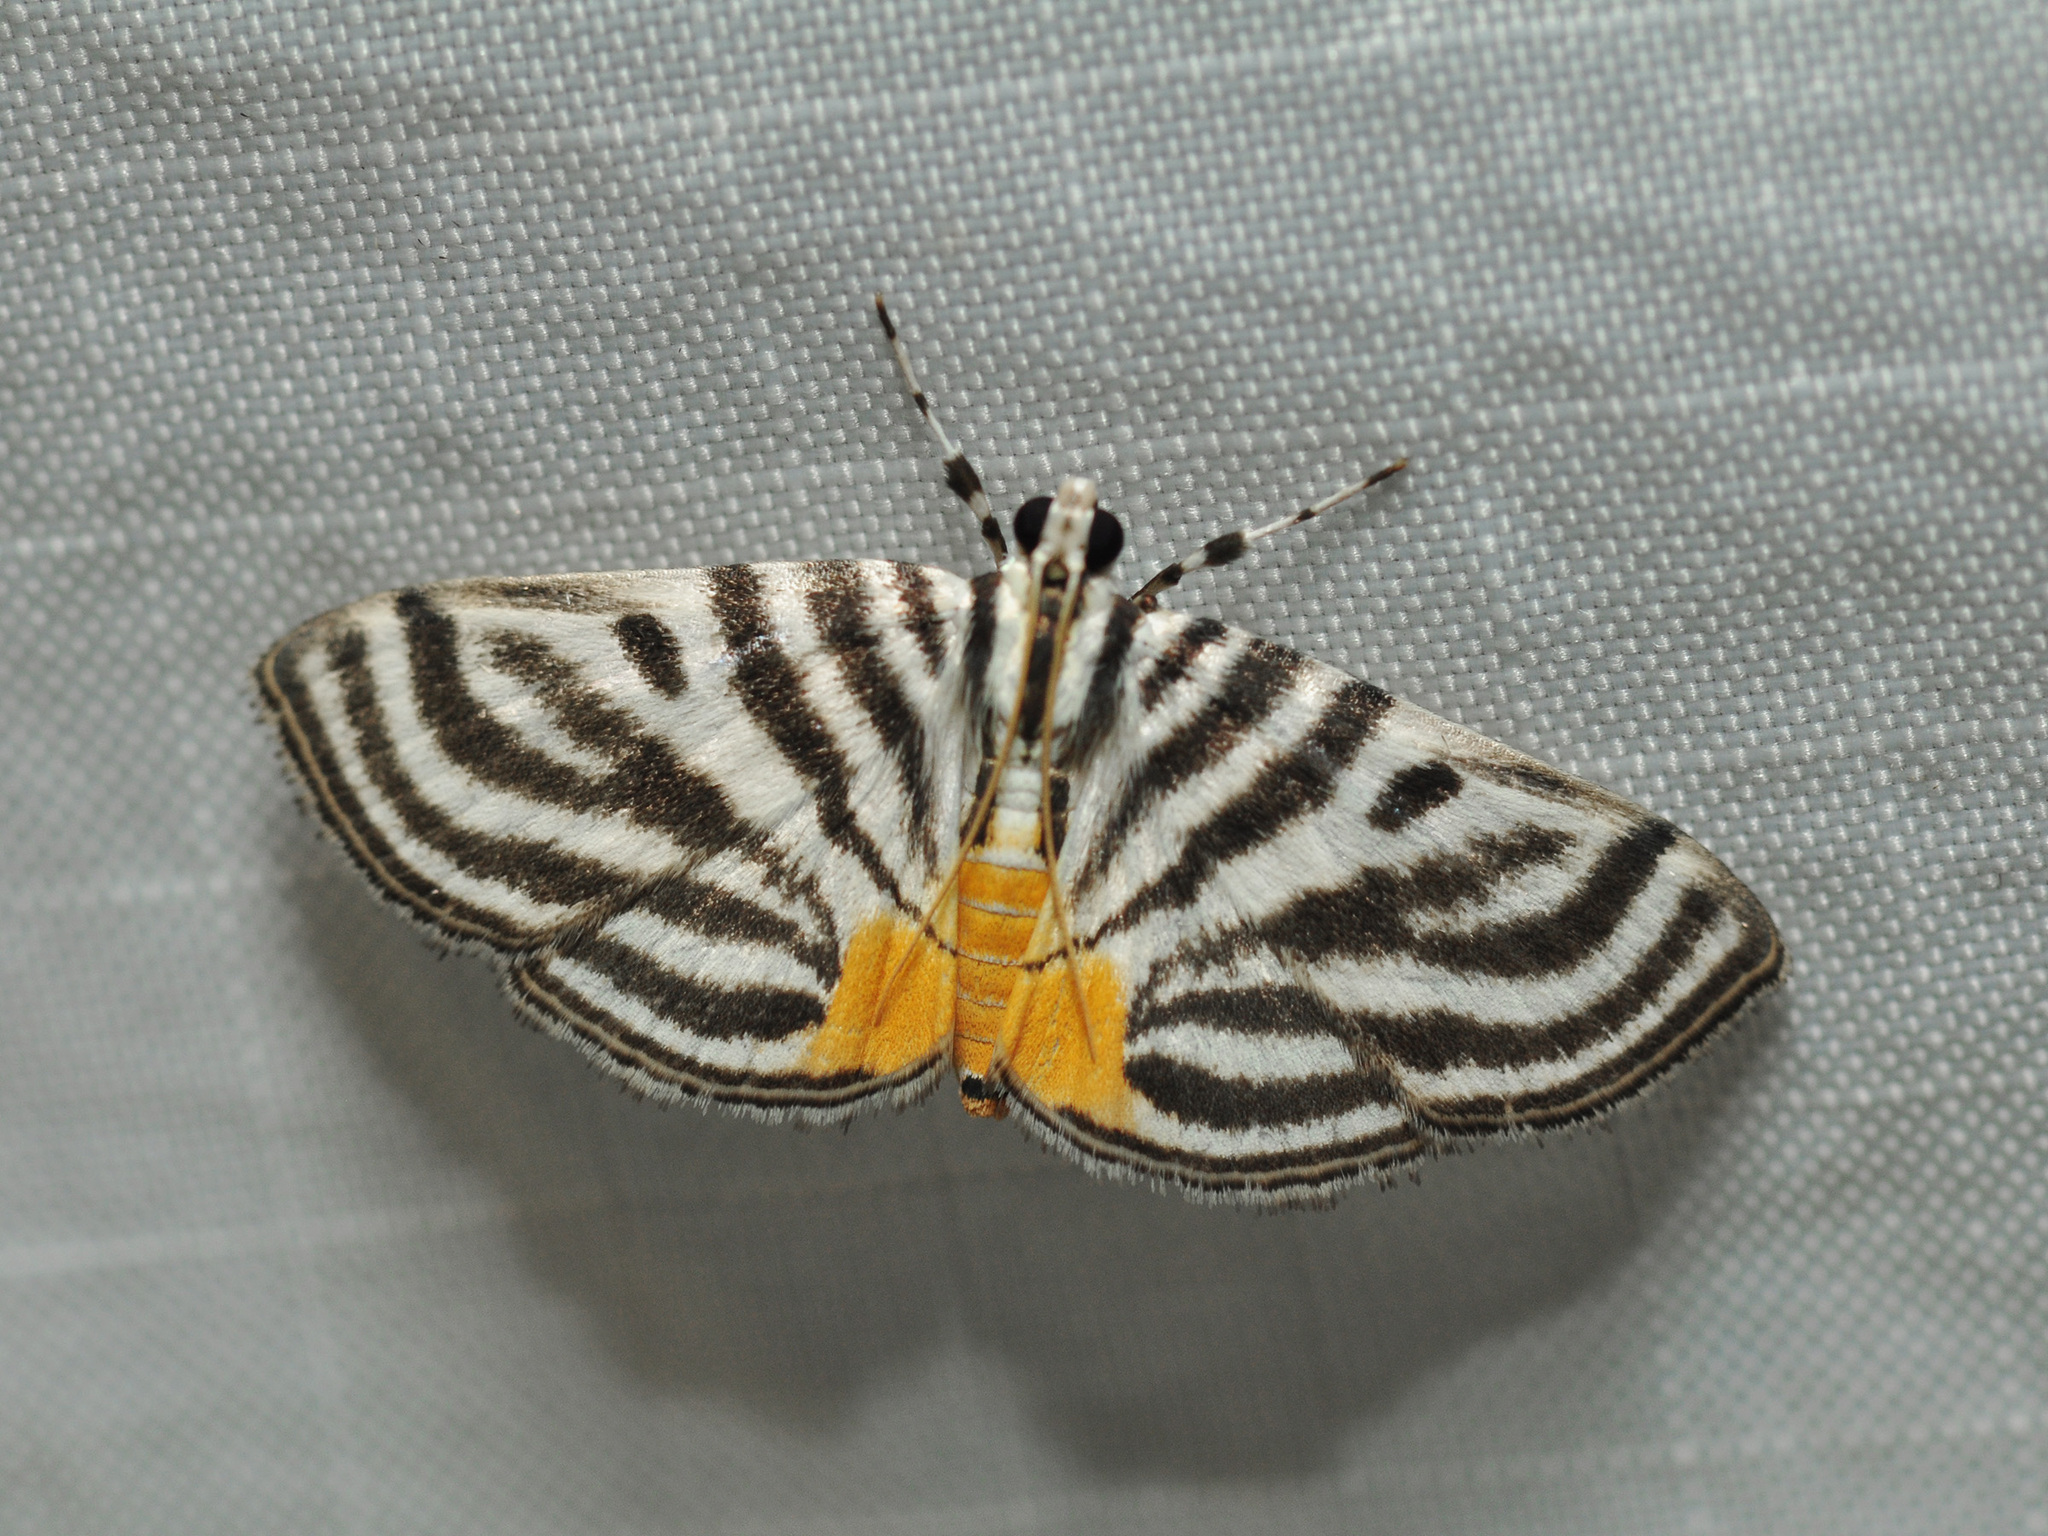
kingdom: Animalia
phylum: Arthropoda
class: Insecta
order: Lepidoptera
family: Crambidae
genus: Dichocrocis
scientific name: Dichocrocis rigidalis
